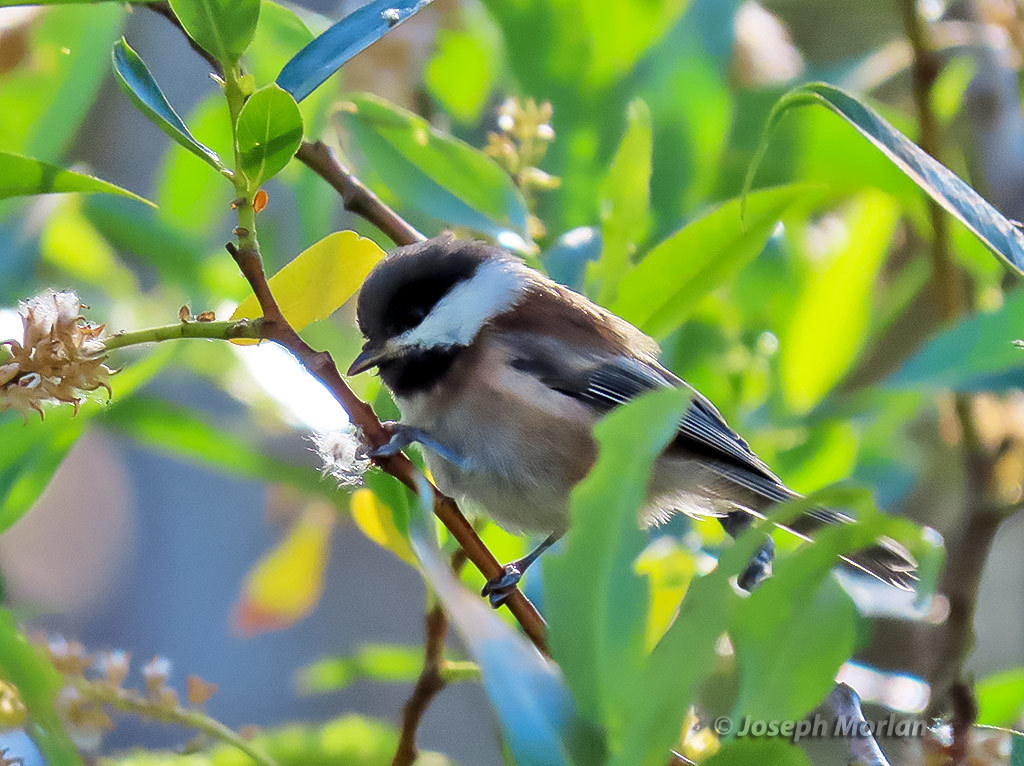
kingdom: Animalia
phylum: Chordata
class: Aves
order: Passeriformes
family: Paridae
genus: Poecile
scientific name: Poecile rufescens
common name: Chestnut-backed chickadee
